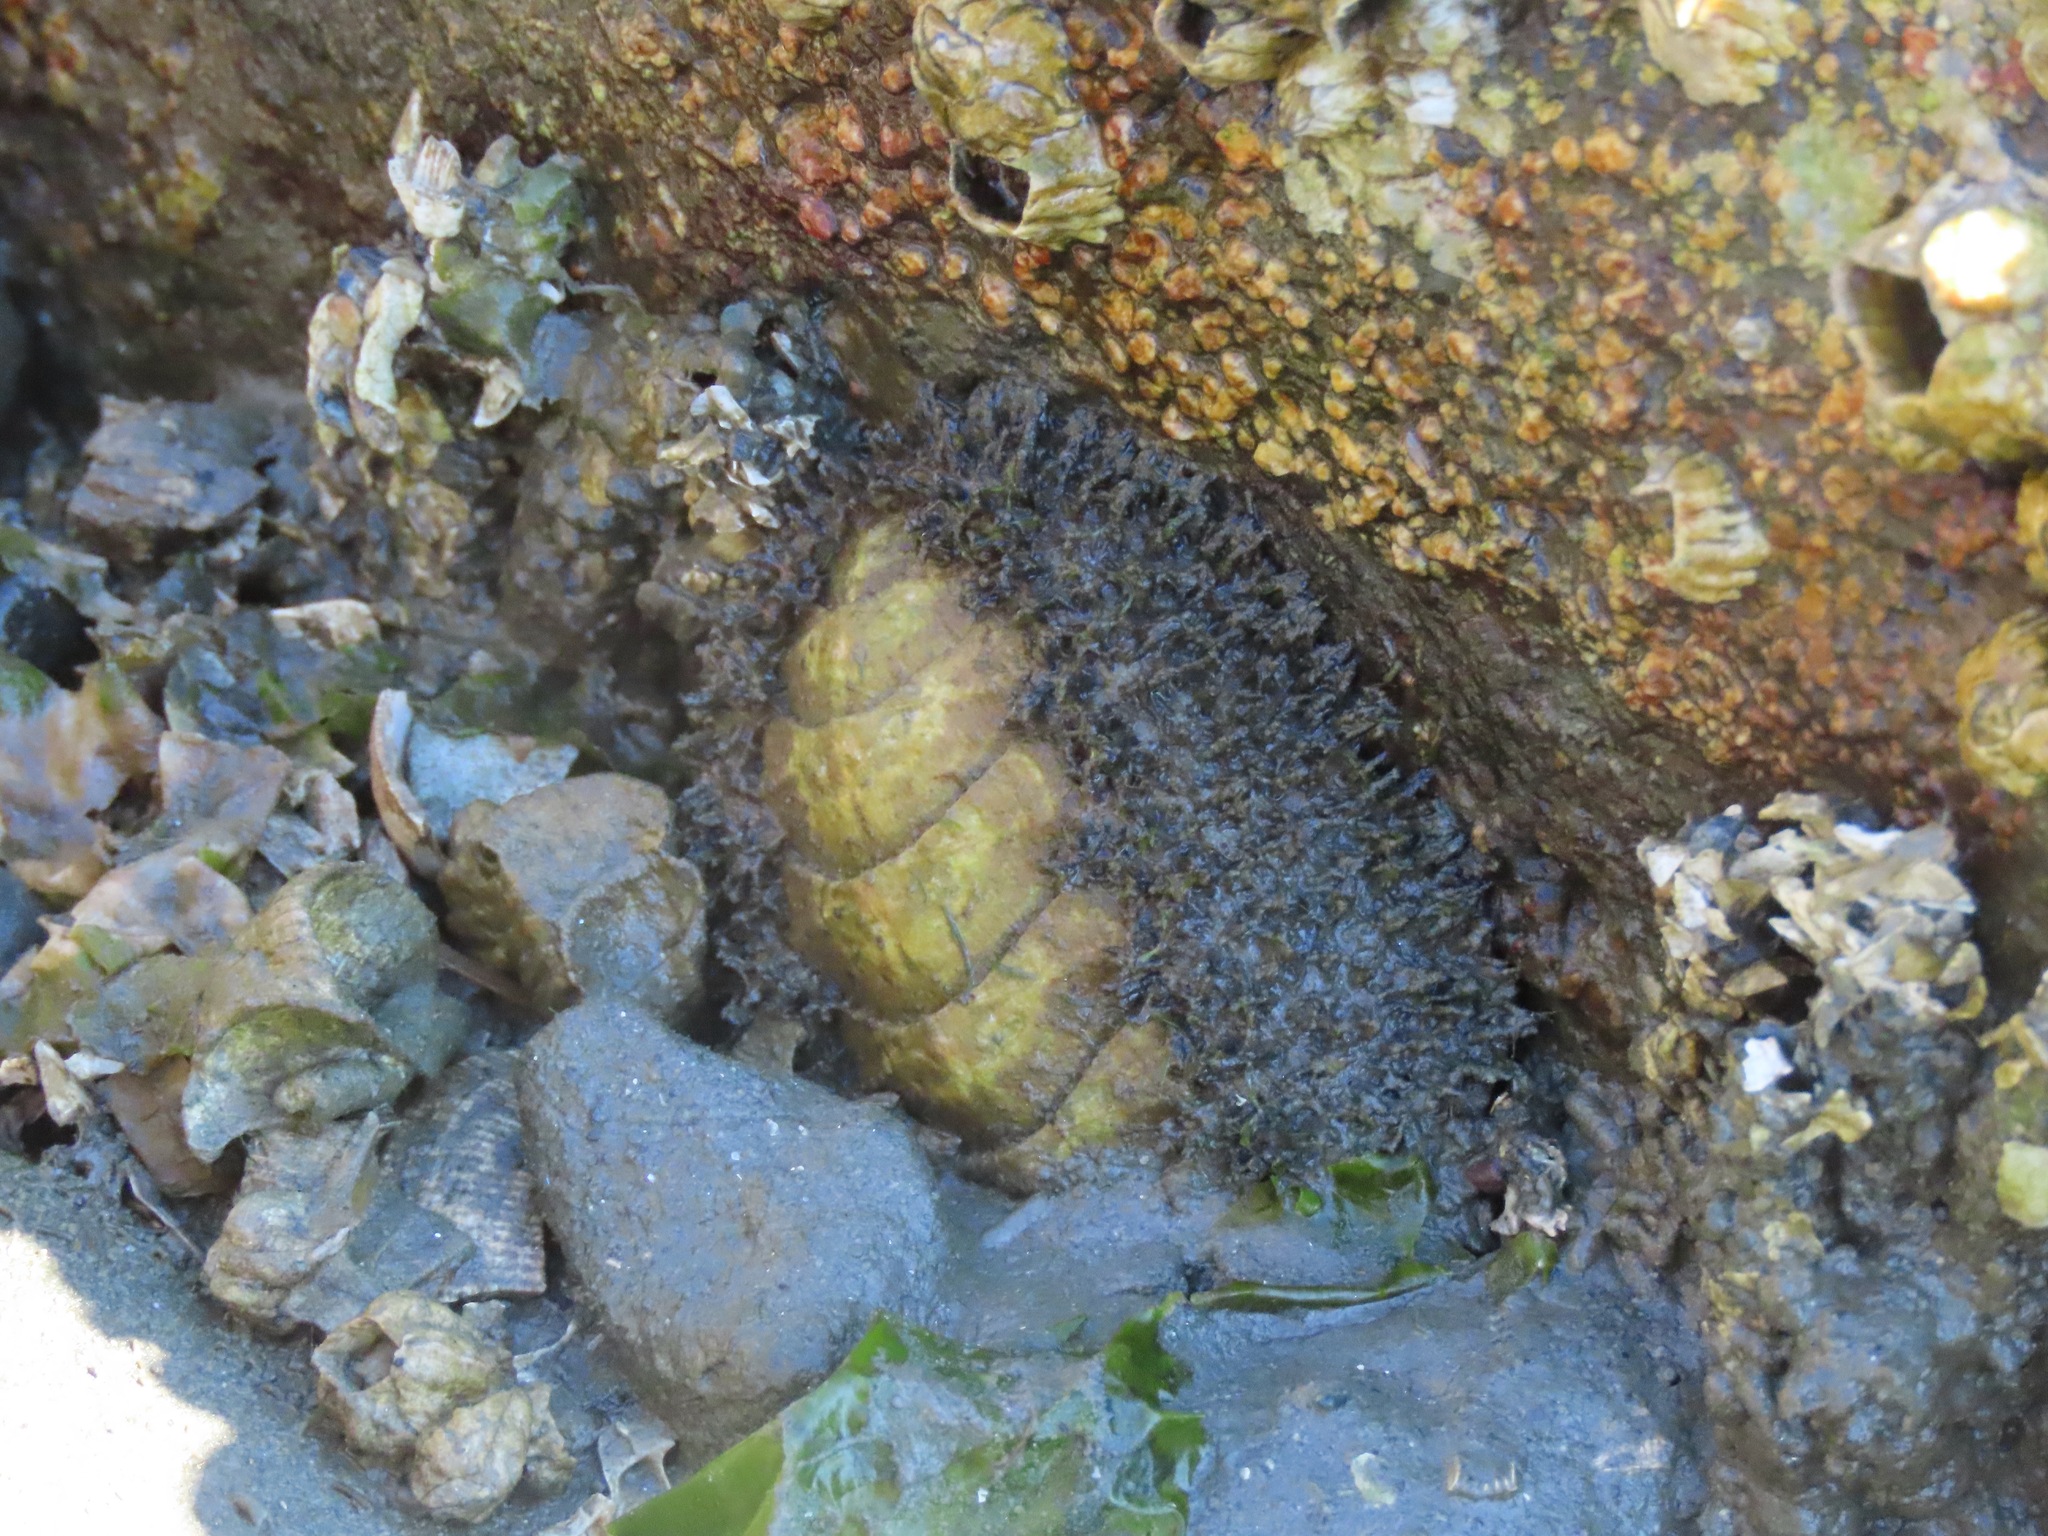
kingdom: Animalia
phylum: Mollusca
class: Polyplacophora
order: Chitonida
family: Mopaliidae
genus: Mopalia
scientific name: Mopalia muscosa
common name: Mossy chiton
